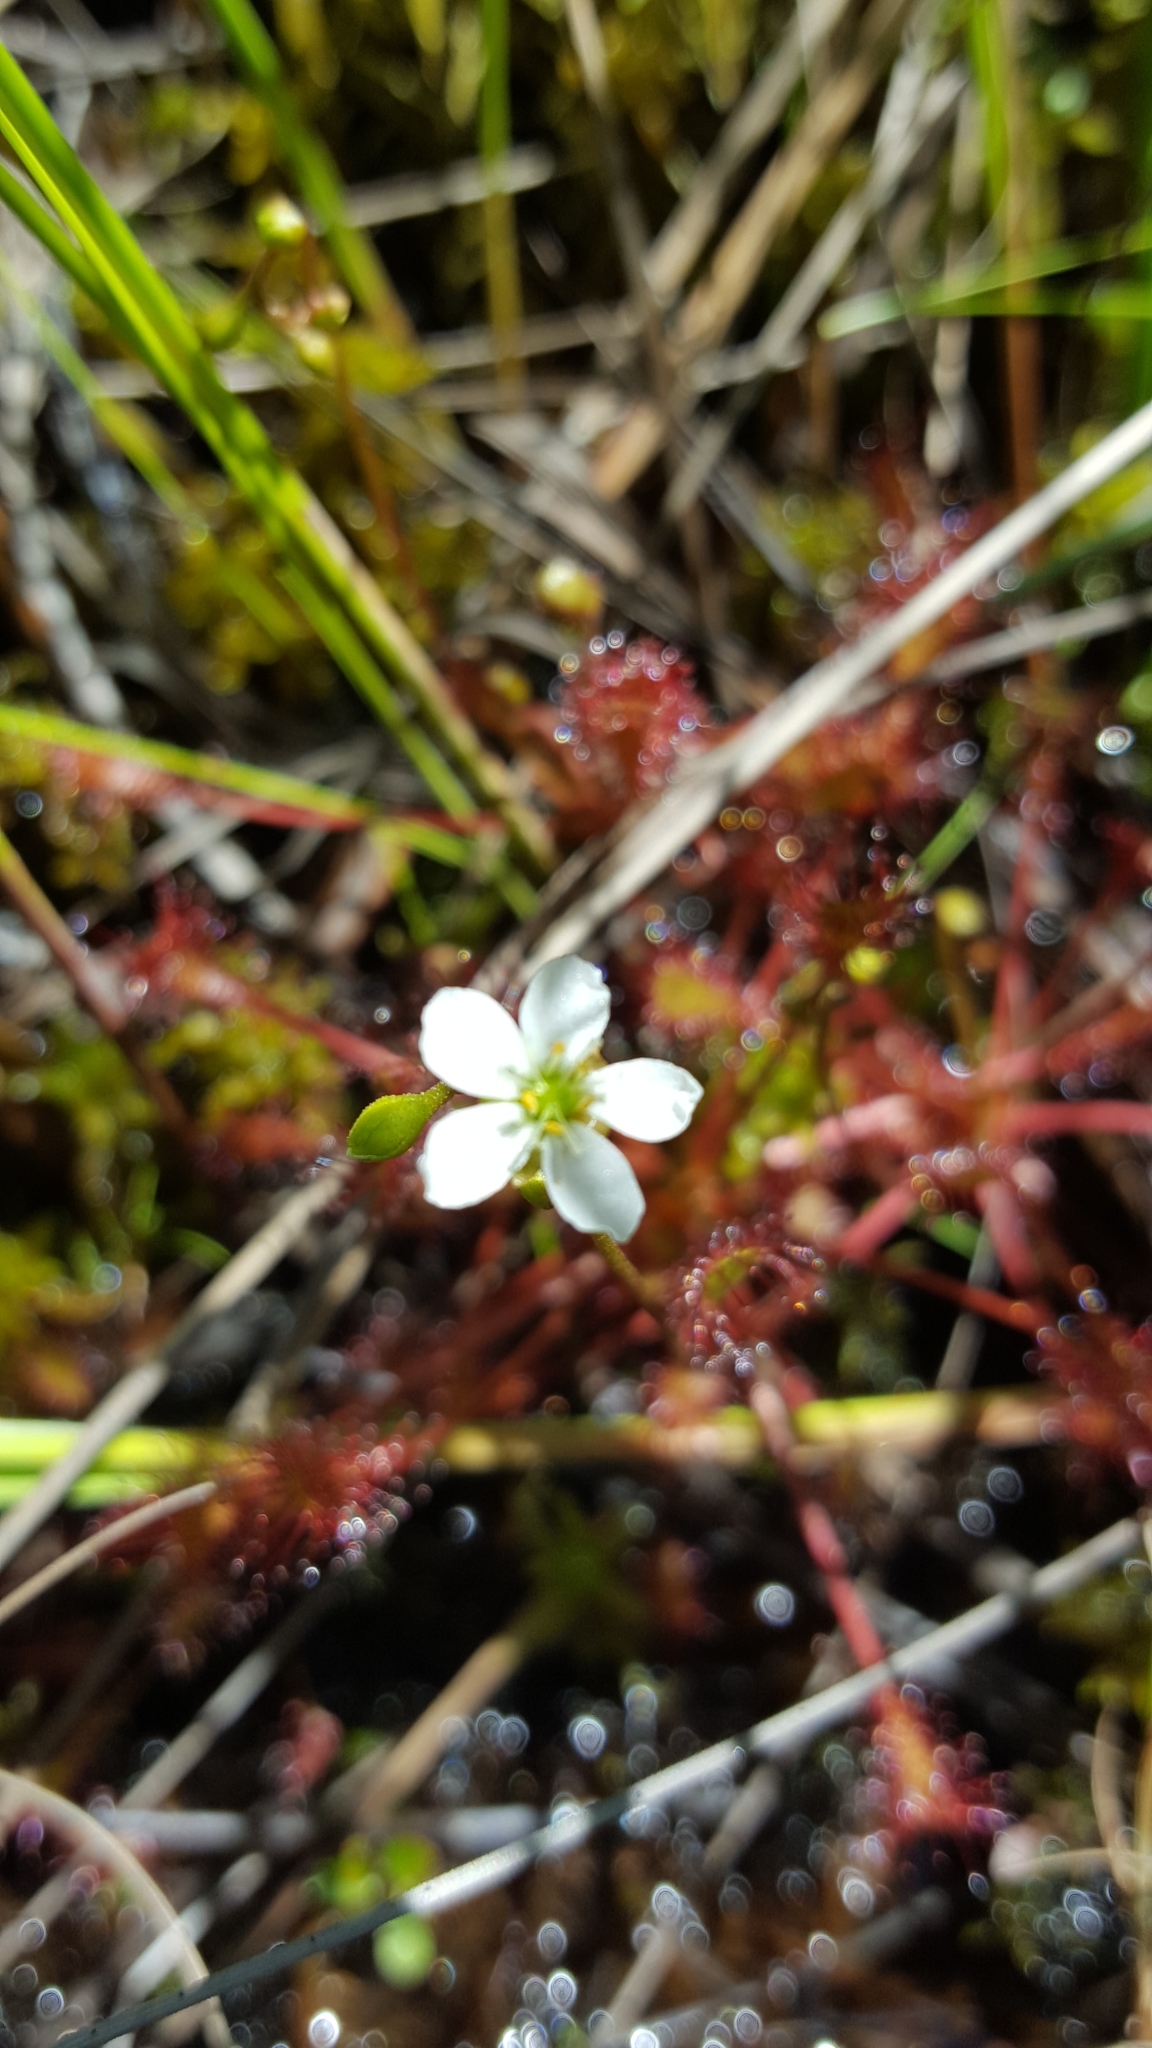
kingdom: Plantae
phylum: Tracheophyta
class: Magnoliopsida
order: Caryophyllales
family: Droseraceae
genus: Drosera
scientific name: Drosera intermedia
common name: Oblong-leaved sundew
